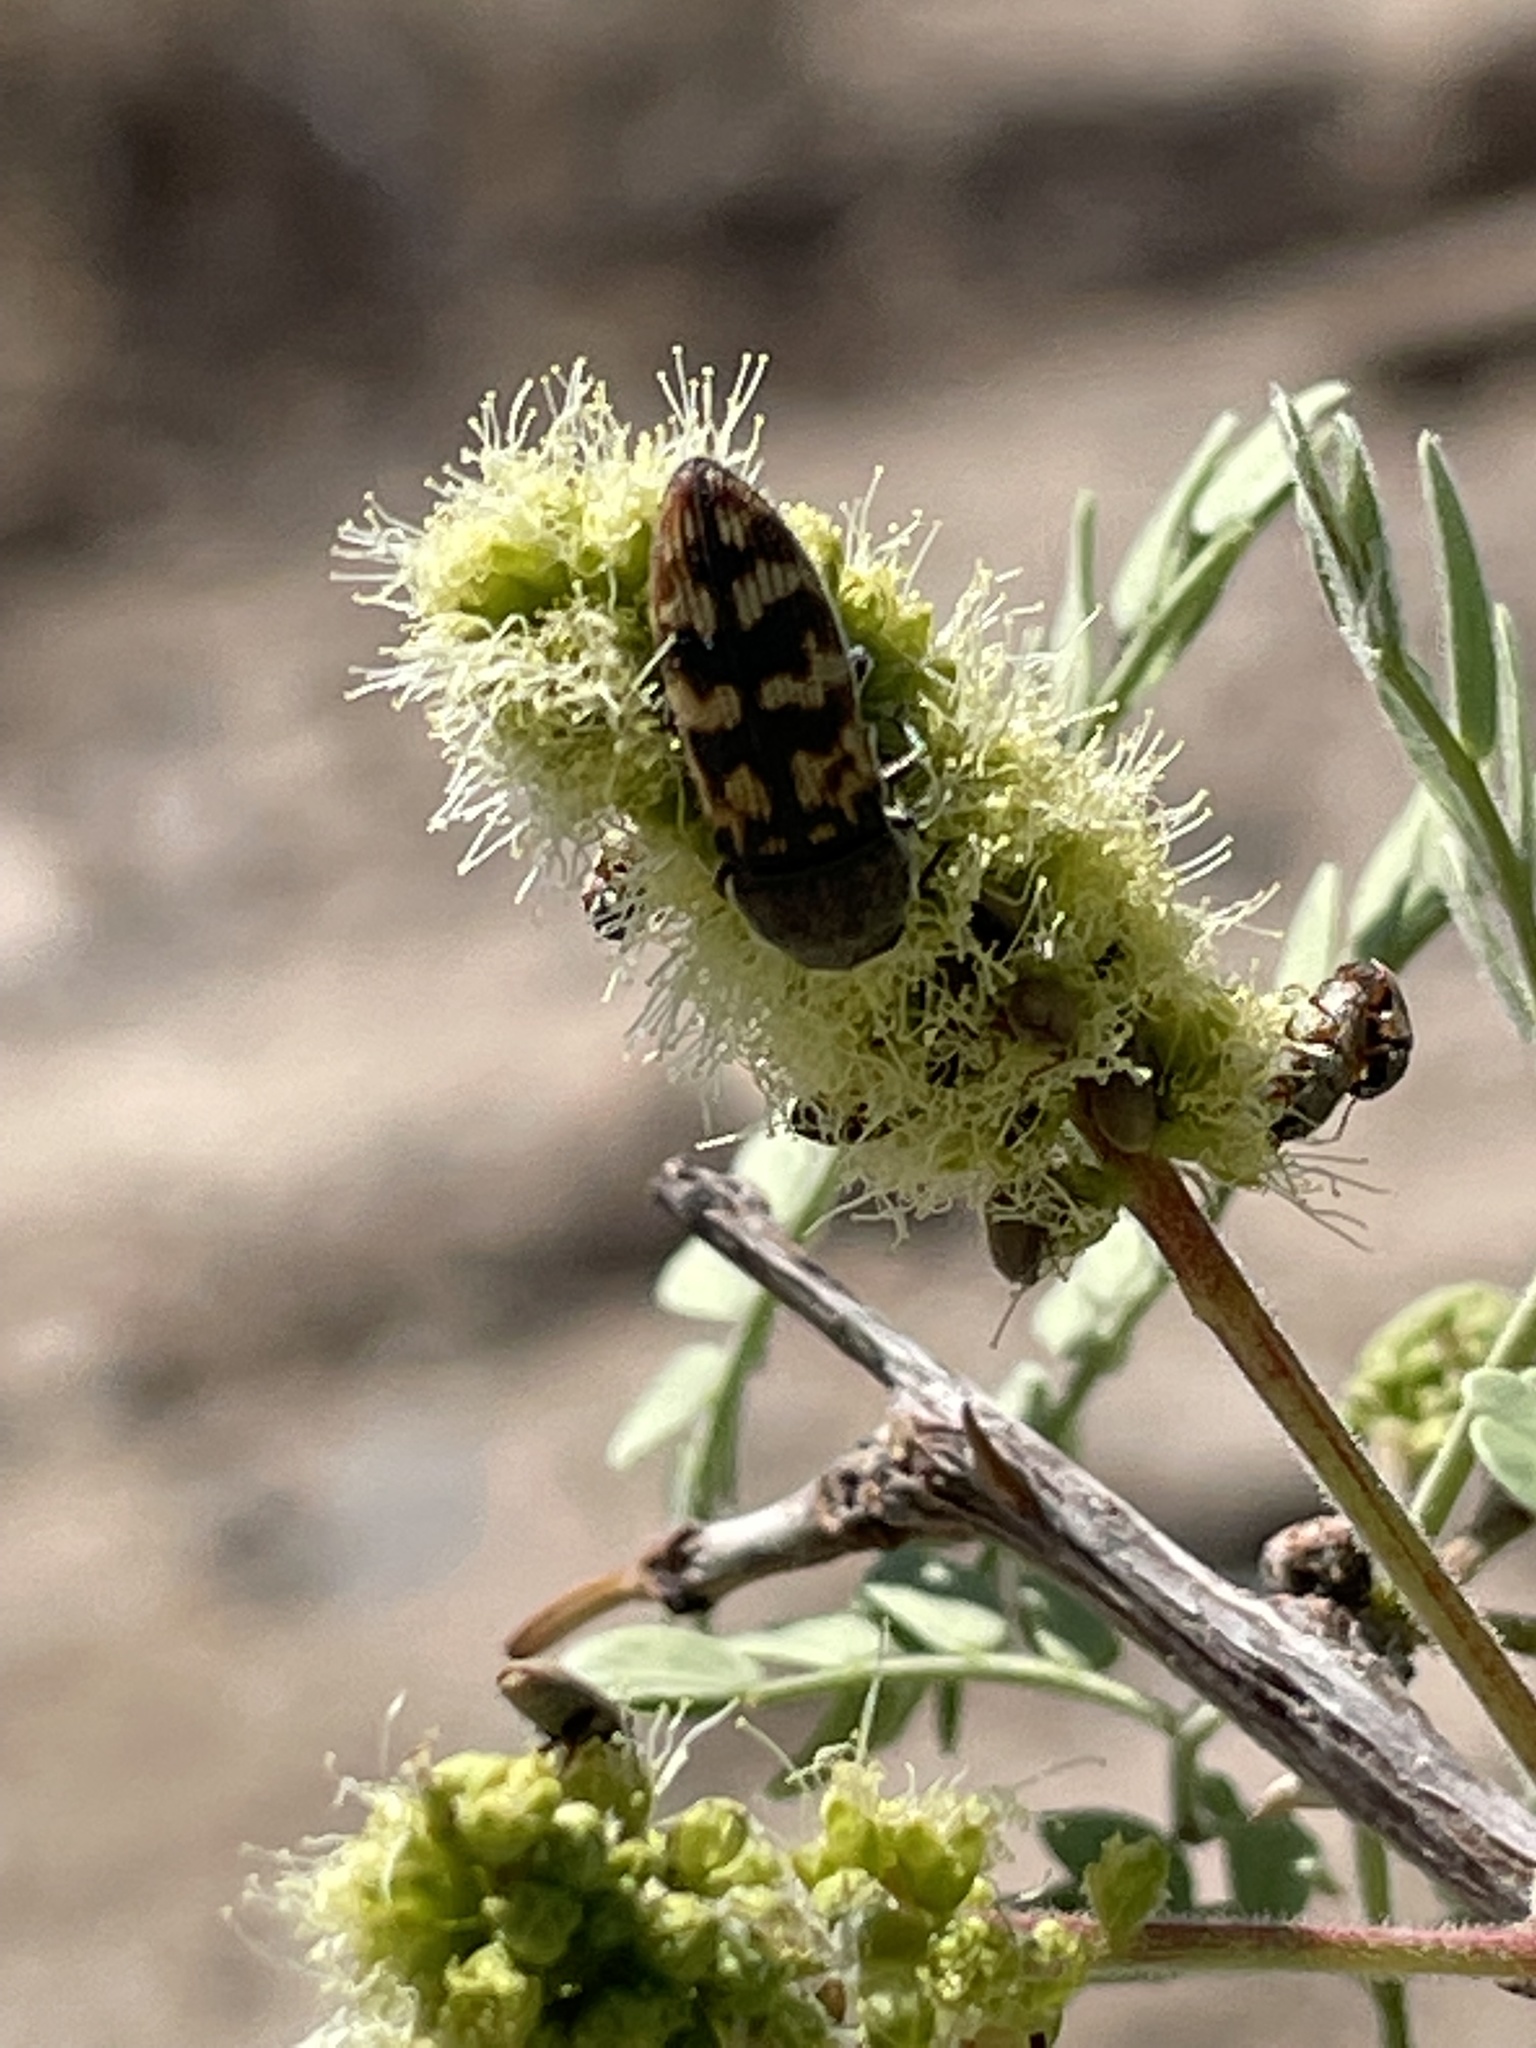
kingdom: Animalia
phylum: Arthropoda
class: Insecta
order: Coleoptera
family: Buprestidae
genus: Acmaeodera
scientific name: Acmaeodera cribricollis
